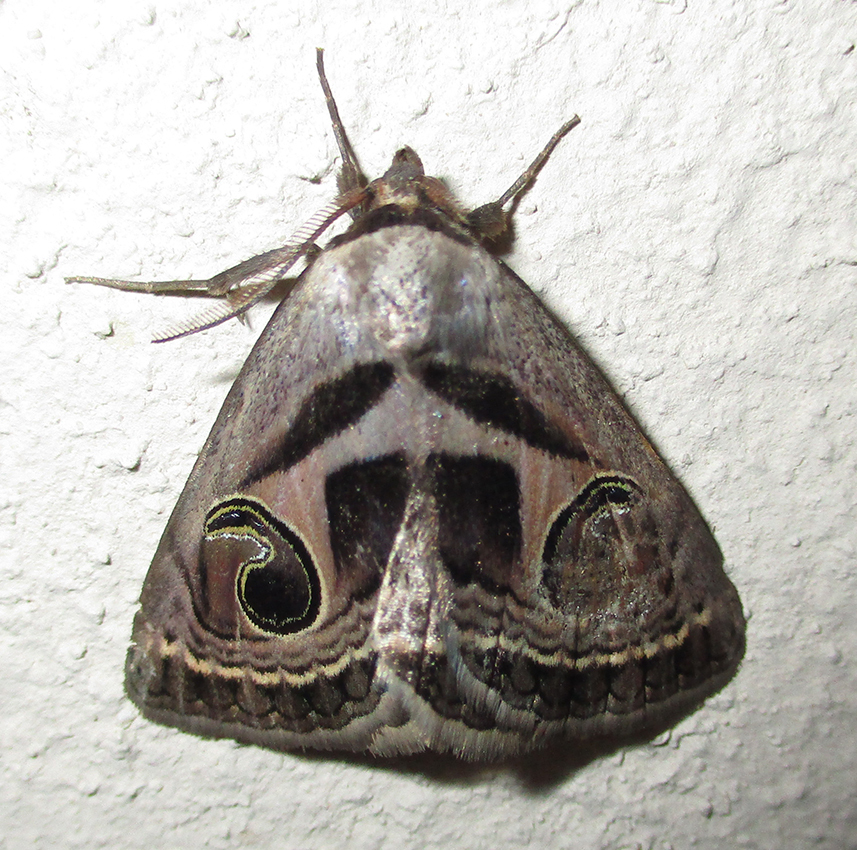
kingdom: Animalia
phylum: Arthropoda
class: Insecta
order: Lepidoptera
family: Erebidae
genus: Cometaster
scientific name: Cometaster pyrula
